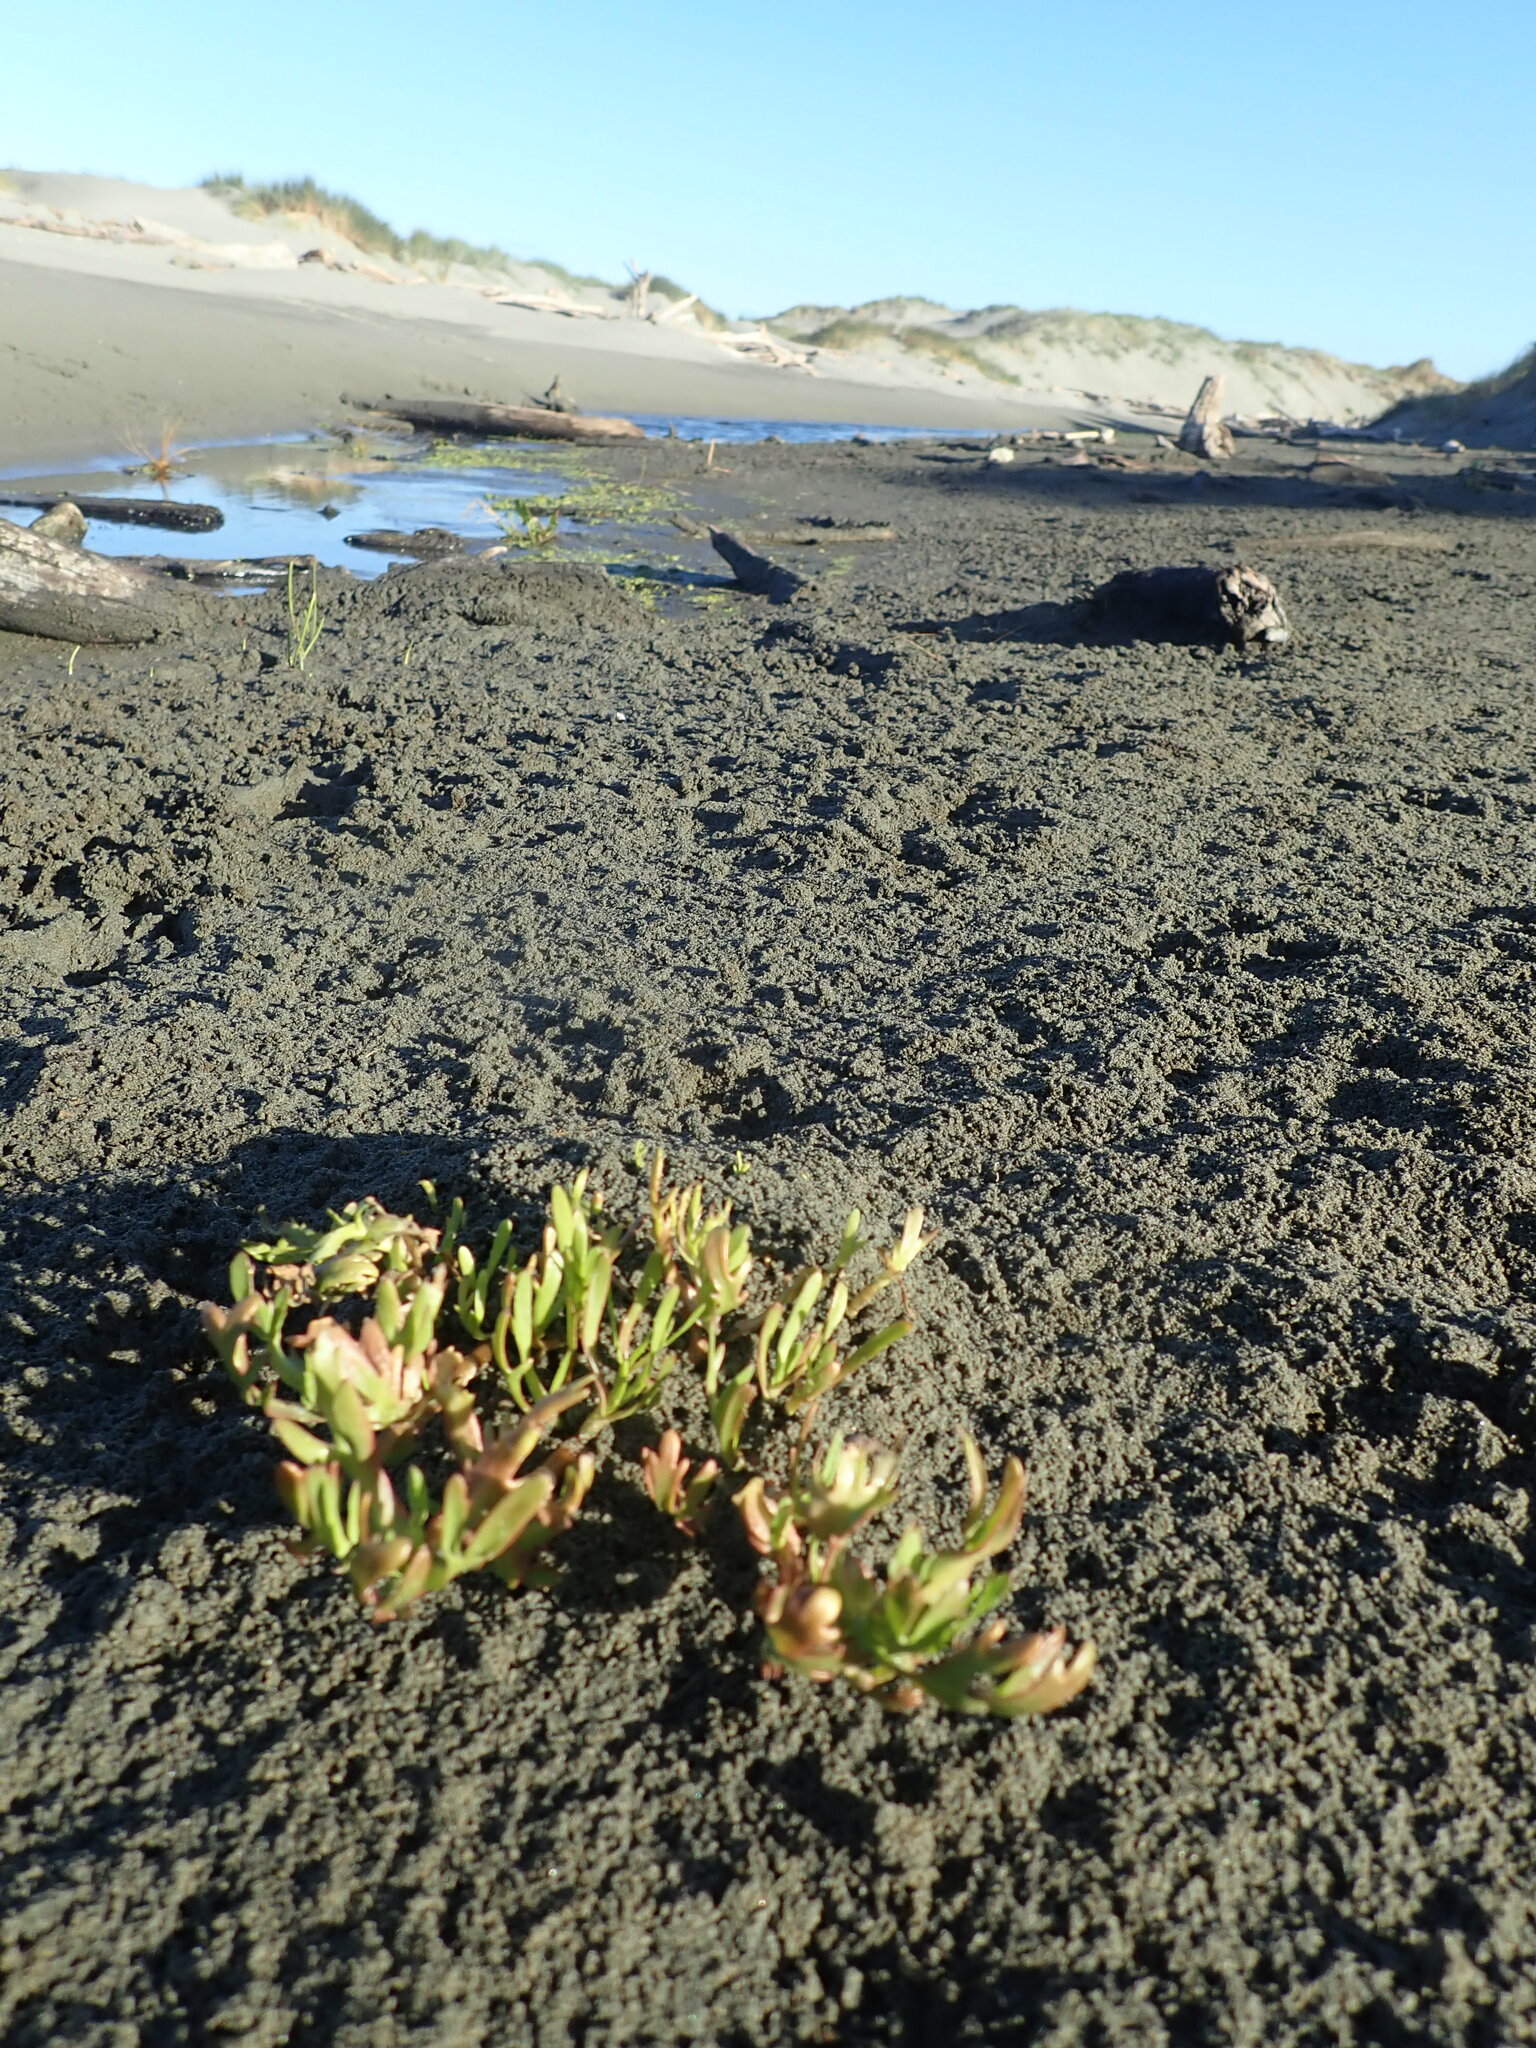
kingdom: Plantae
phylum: Tracheophyta
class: Magnoliopsida
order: Asterales
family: Asteraceae
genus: Cotula
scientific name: Cotula coronopifolia
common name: Buttonweed
